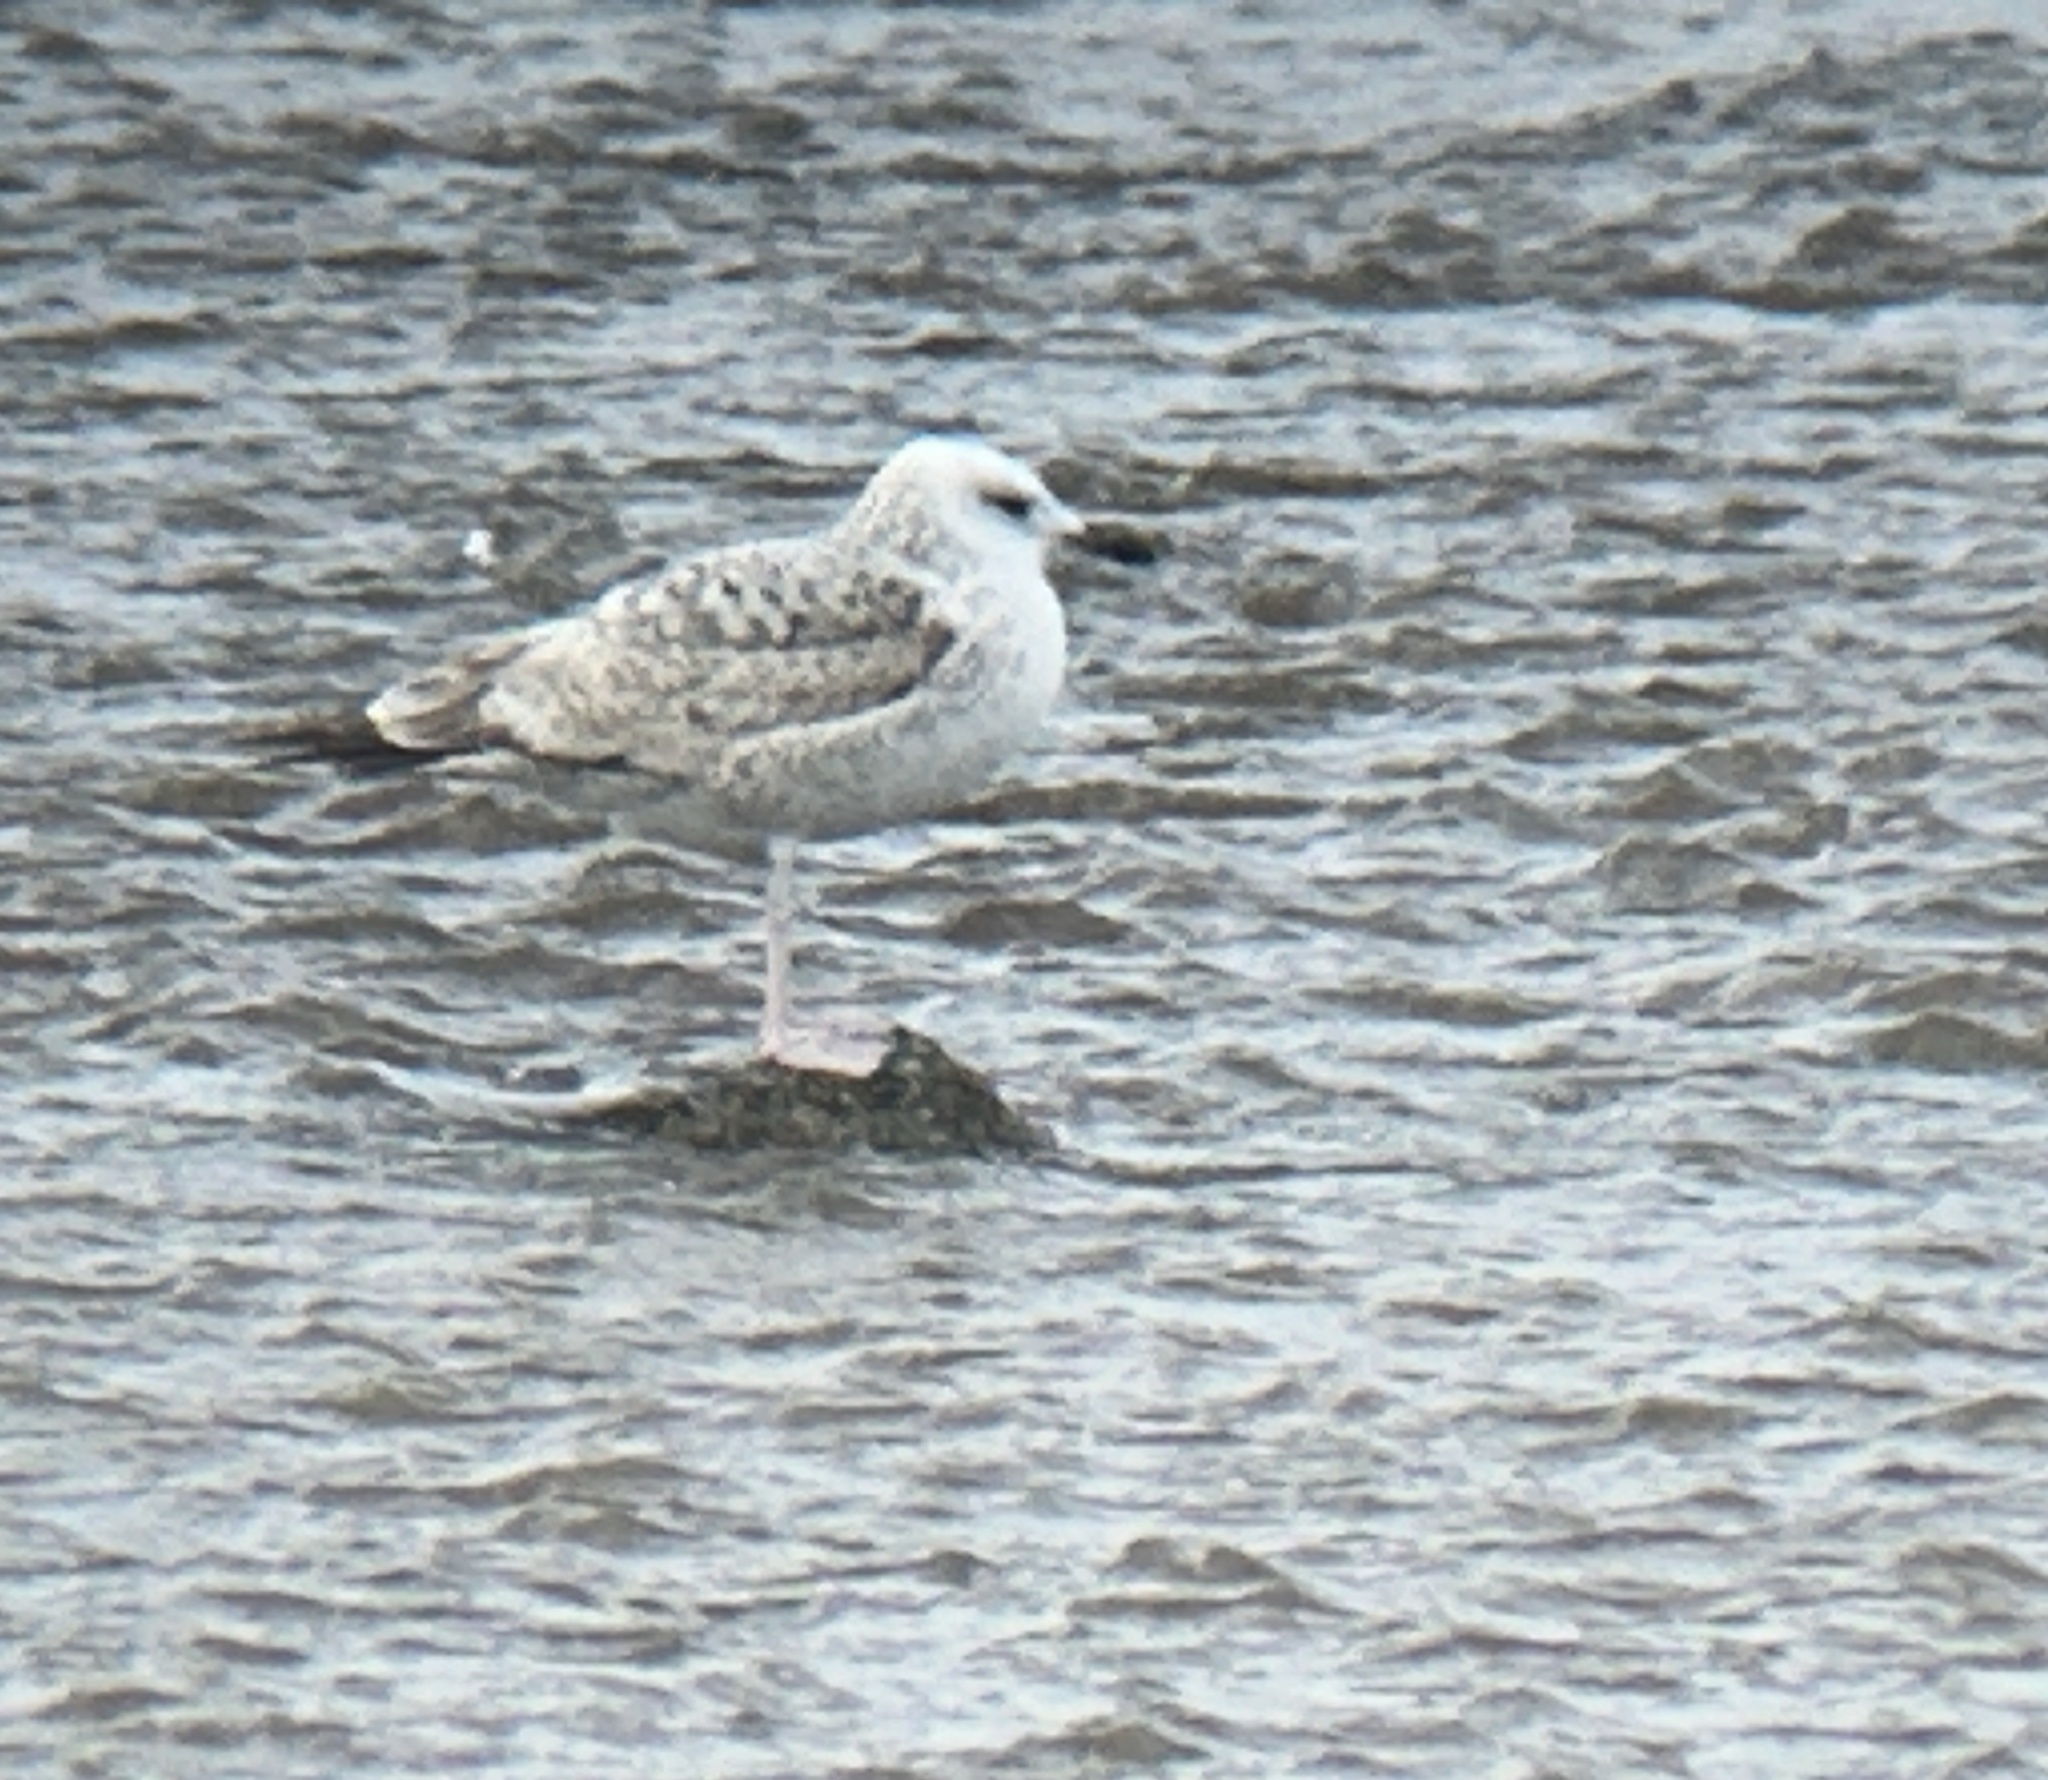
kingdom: Animalia
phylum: Chordata
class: Aves
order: Charadriiformes
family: Laridae
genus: Larus
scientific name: Larus cachinnans
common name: Caspian gull
